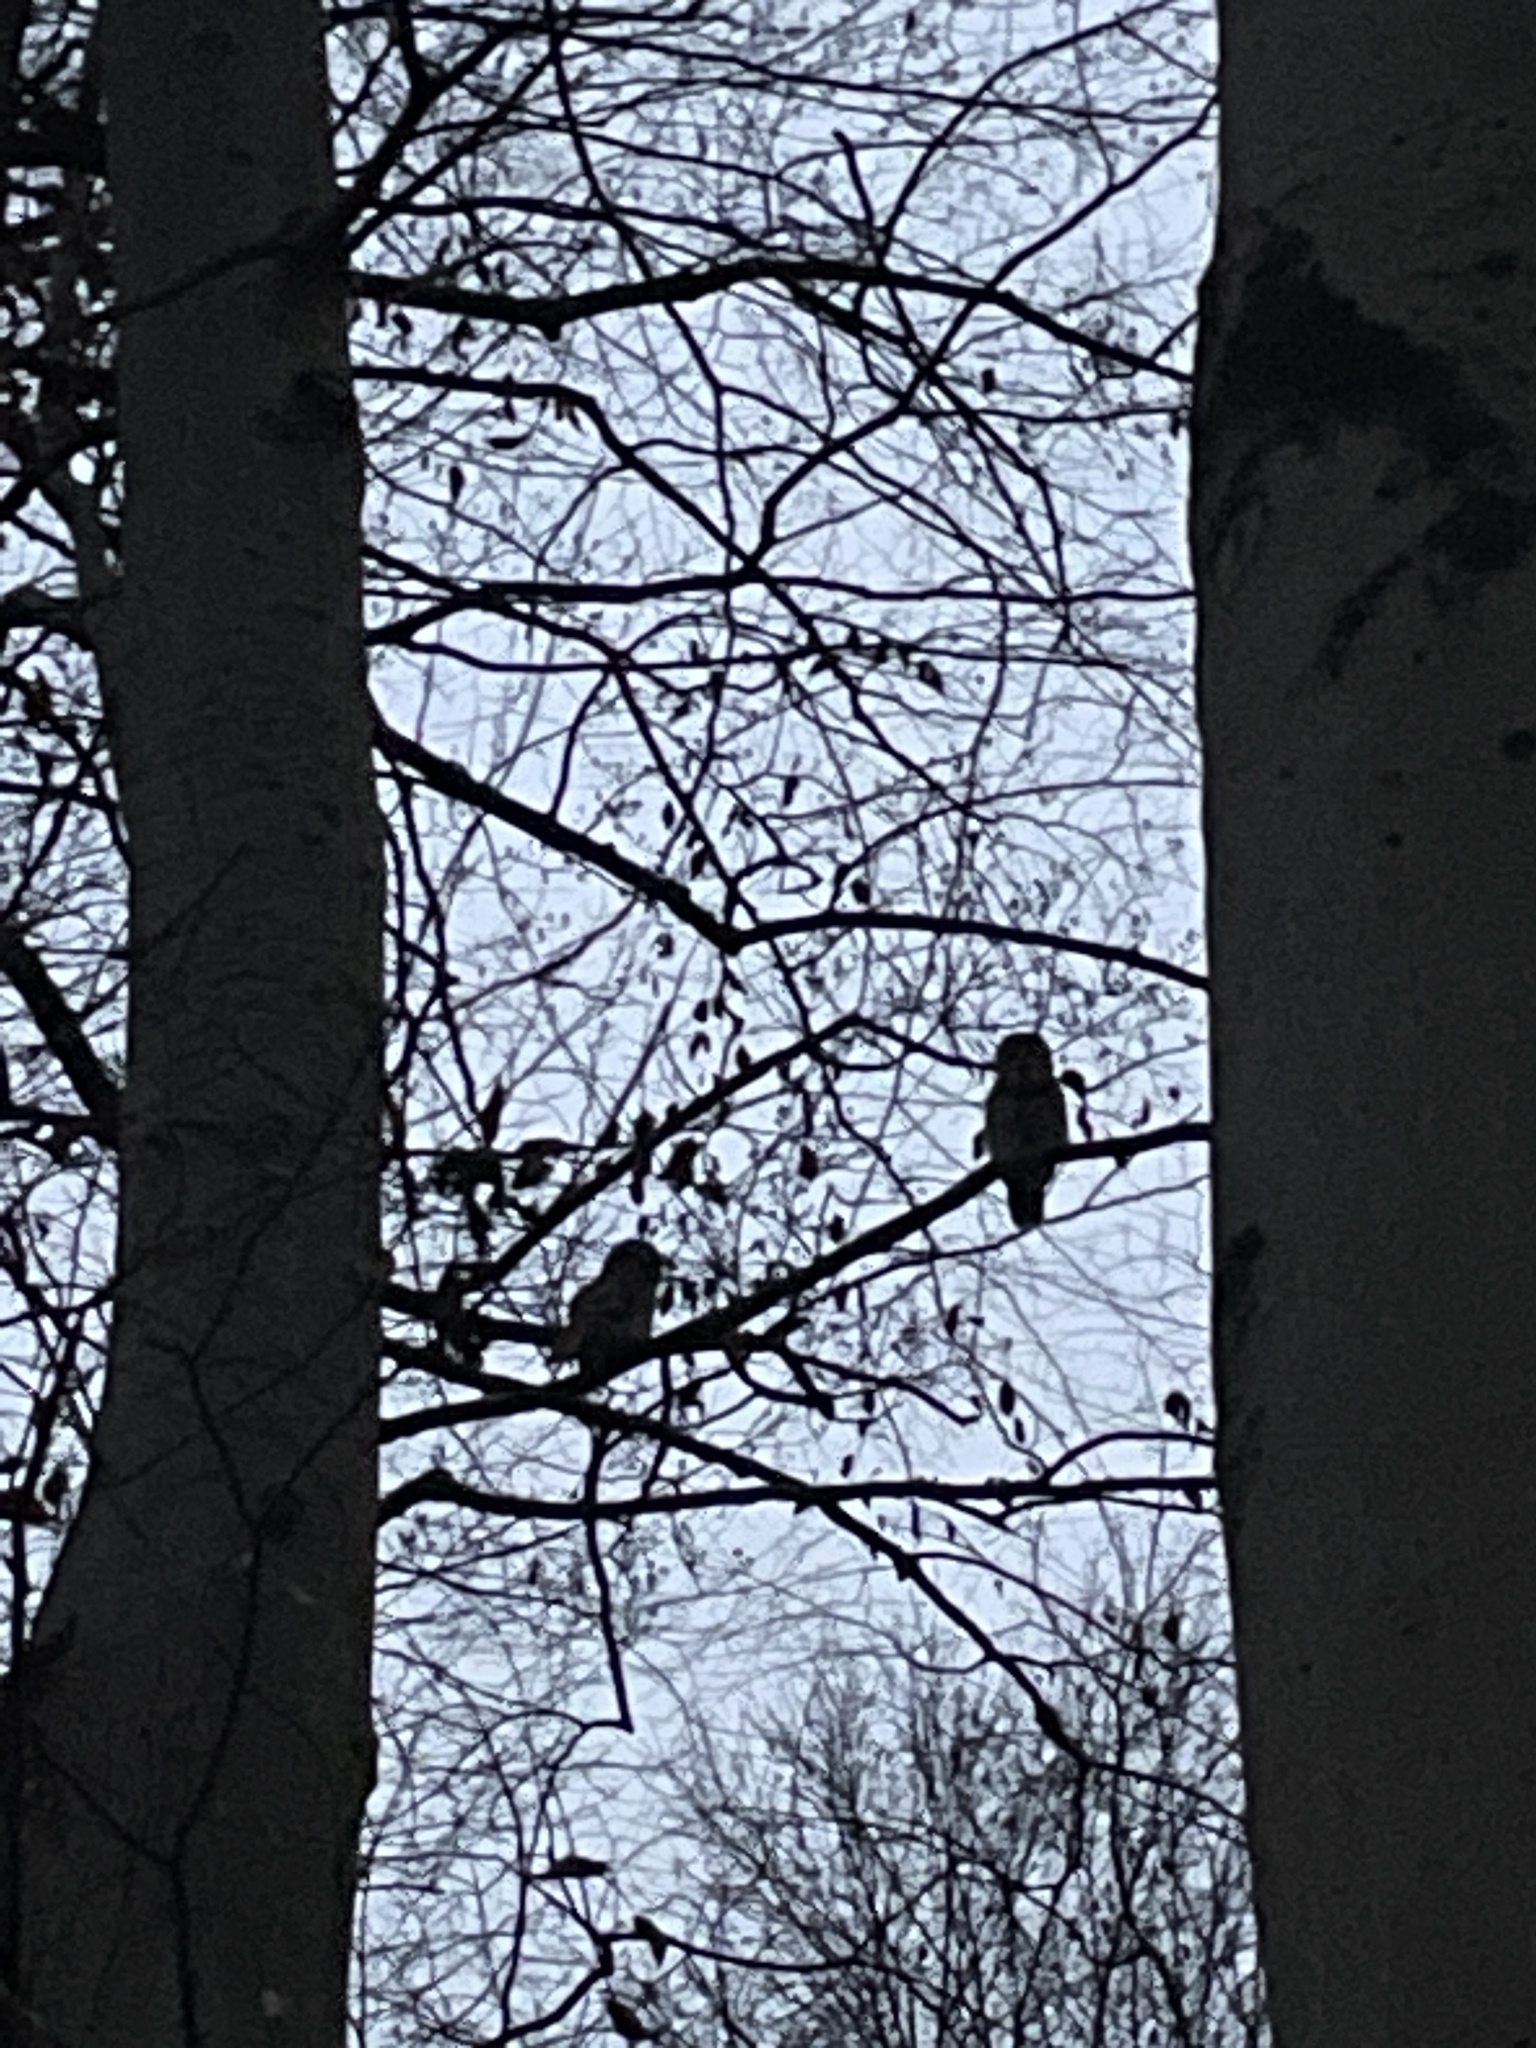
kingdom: Animalia
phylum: Chordata
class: Aves
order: Strigiformes
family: Strigidae
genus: Strix
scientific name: Strix varia
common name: Barred owl
